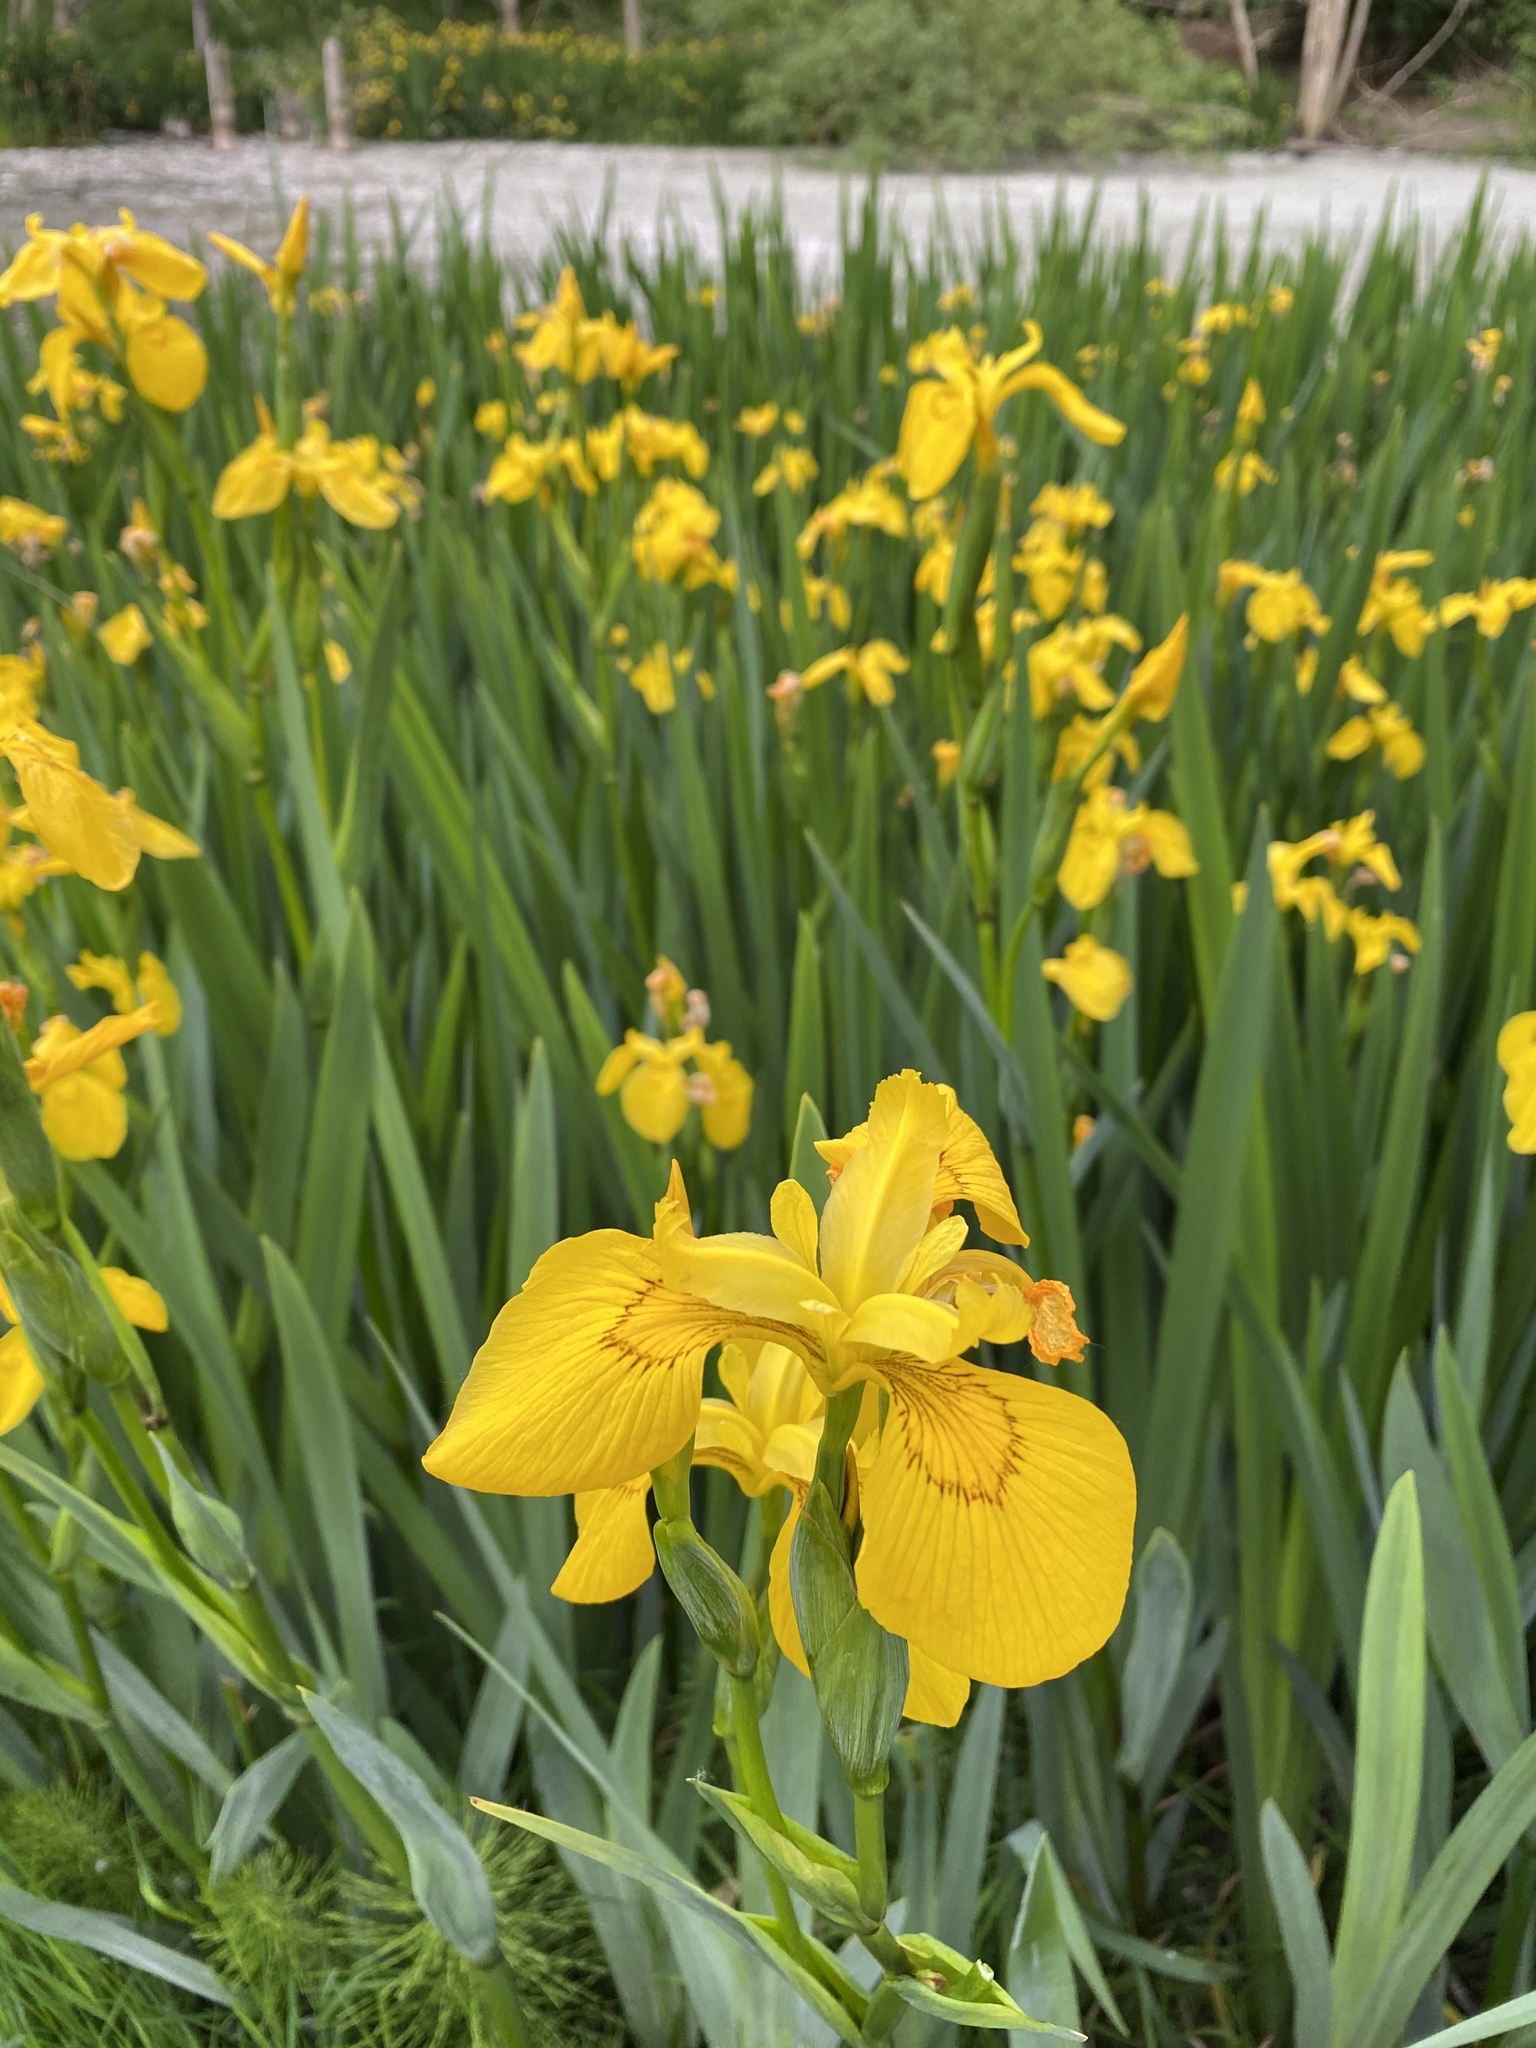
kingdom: Plantae
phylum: Tracheophyta
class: Liliopsida
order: Asparagales
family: Iridaceae
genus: Iris
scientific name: Iris pseudacorus
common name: Yellow flag
